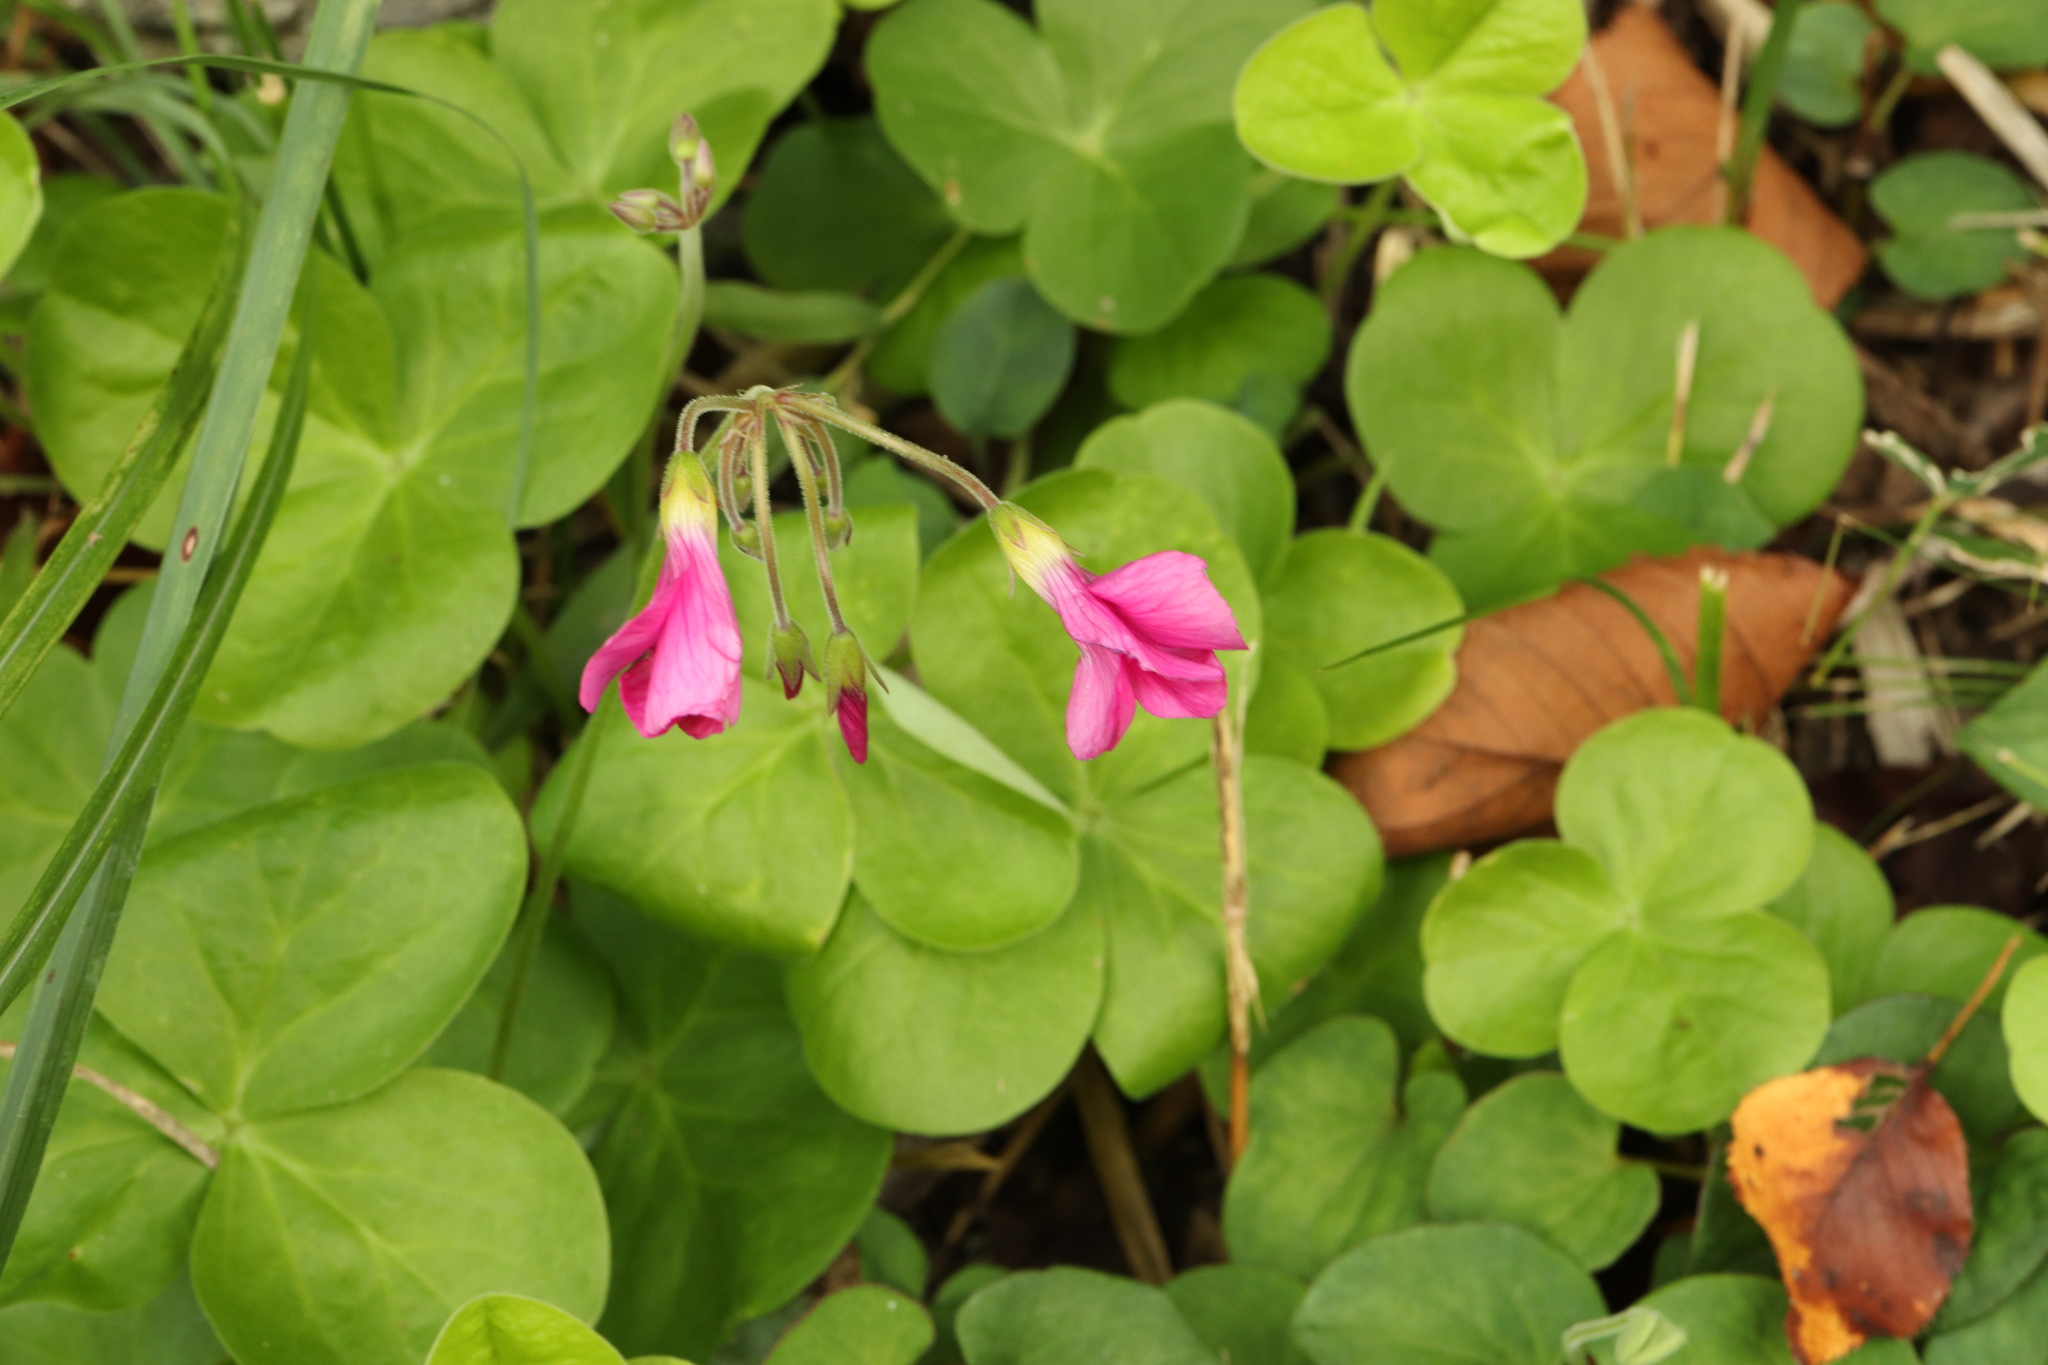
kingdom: Plantae
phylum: Tracheophyta
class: Magnoliopsida
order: Oxalidales
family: Oxalidaceae
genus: Oxalis
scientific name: Oxalis bowiei
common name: Bowie's wood-sorrel
